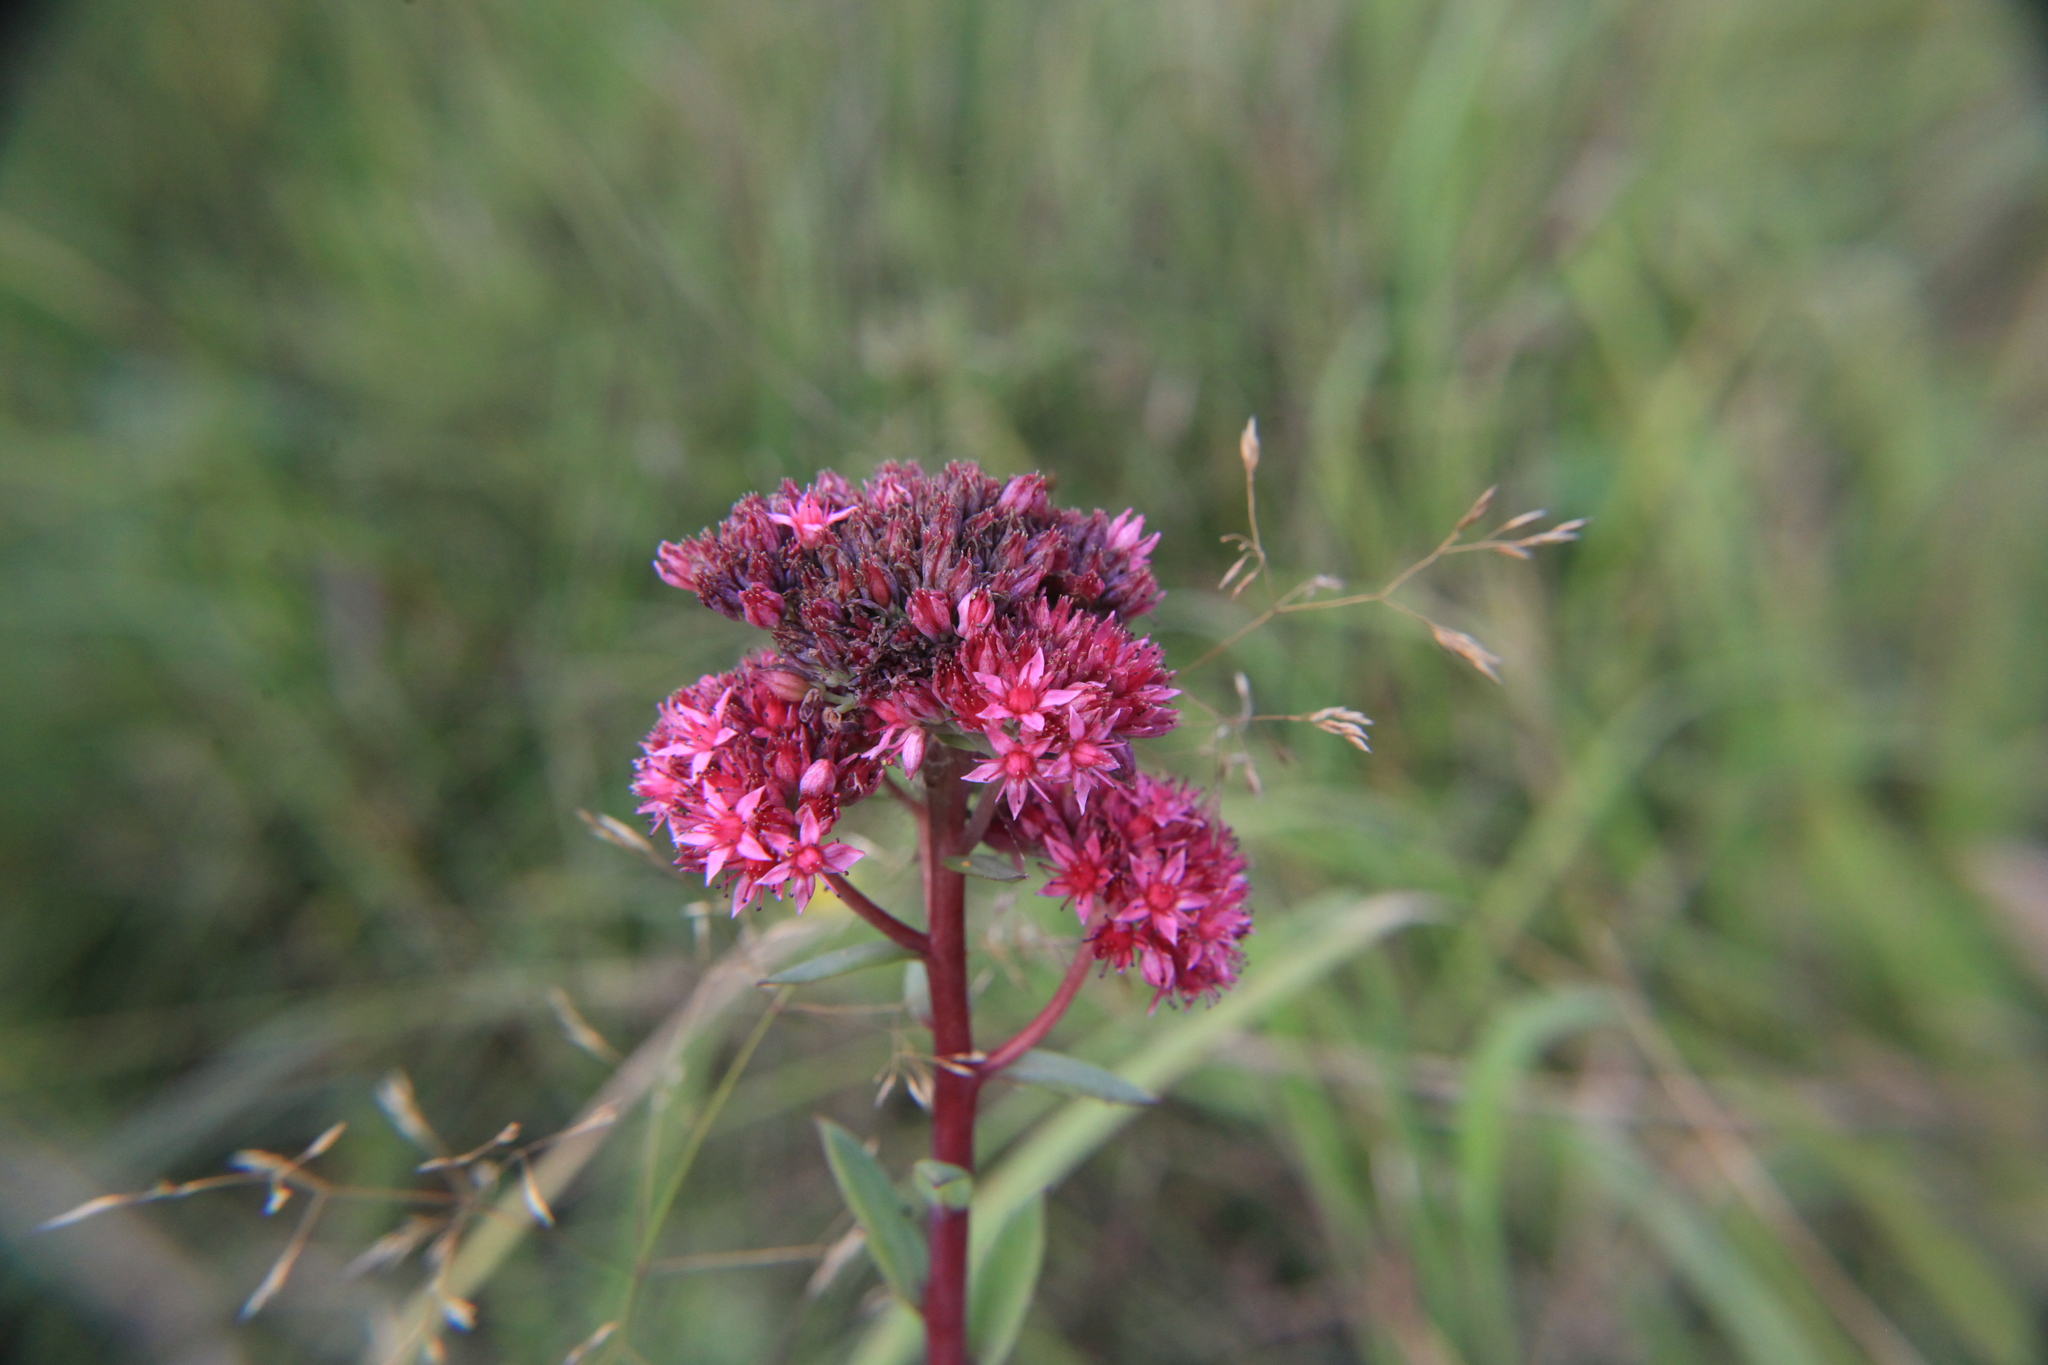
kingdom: Plantae
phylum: Tracheophyta
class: Magnoliopsida
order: Saxifragales
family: Crassulaceae
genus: Hylotelephium
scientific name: Hylotelephium telephium
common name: Live-forever
